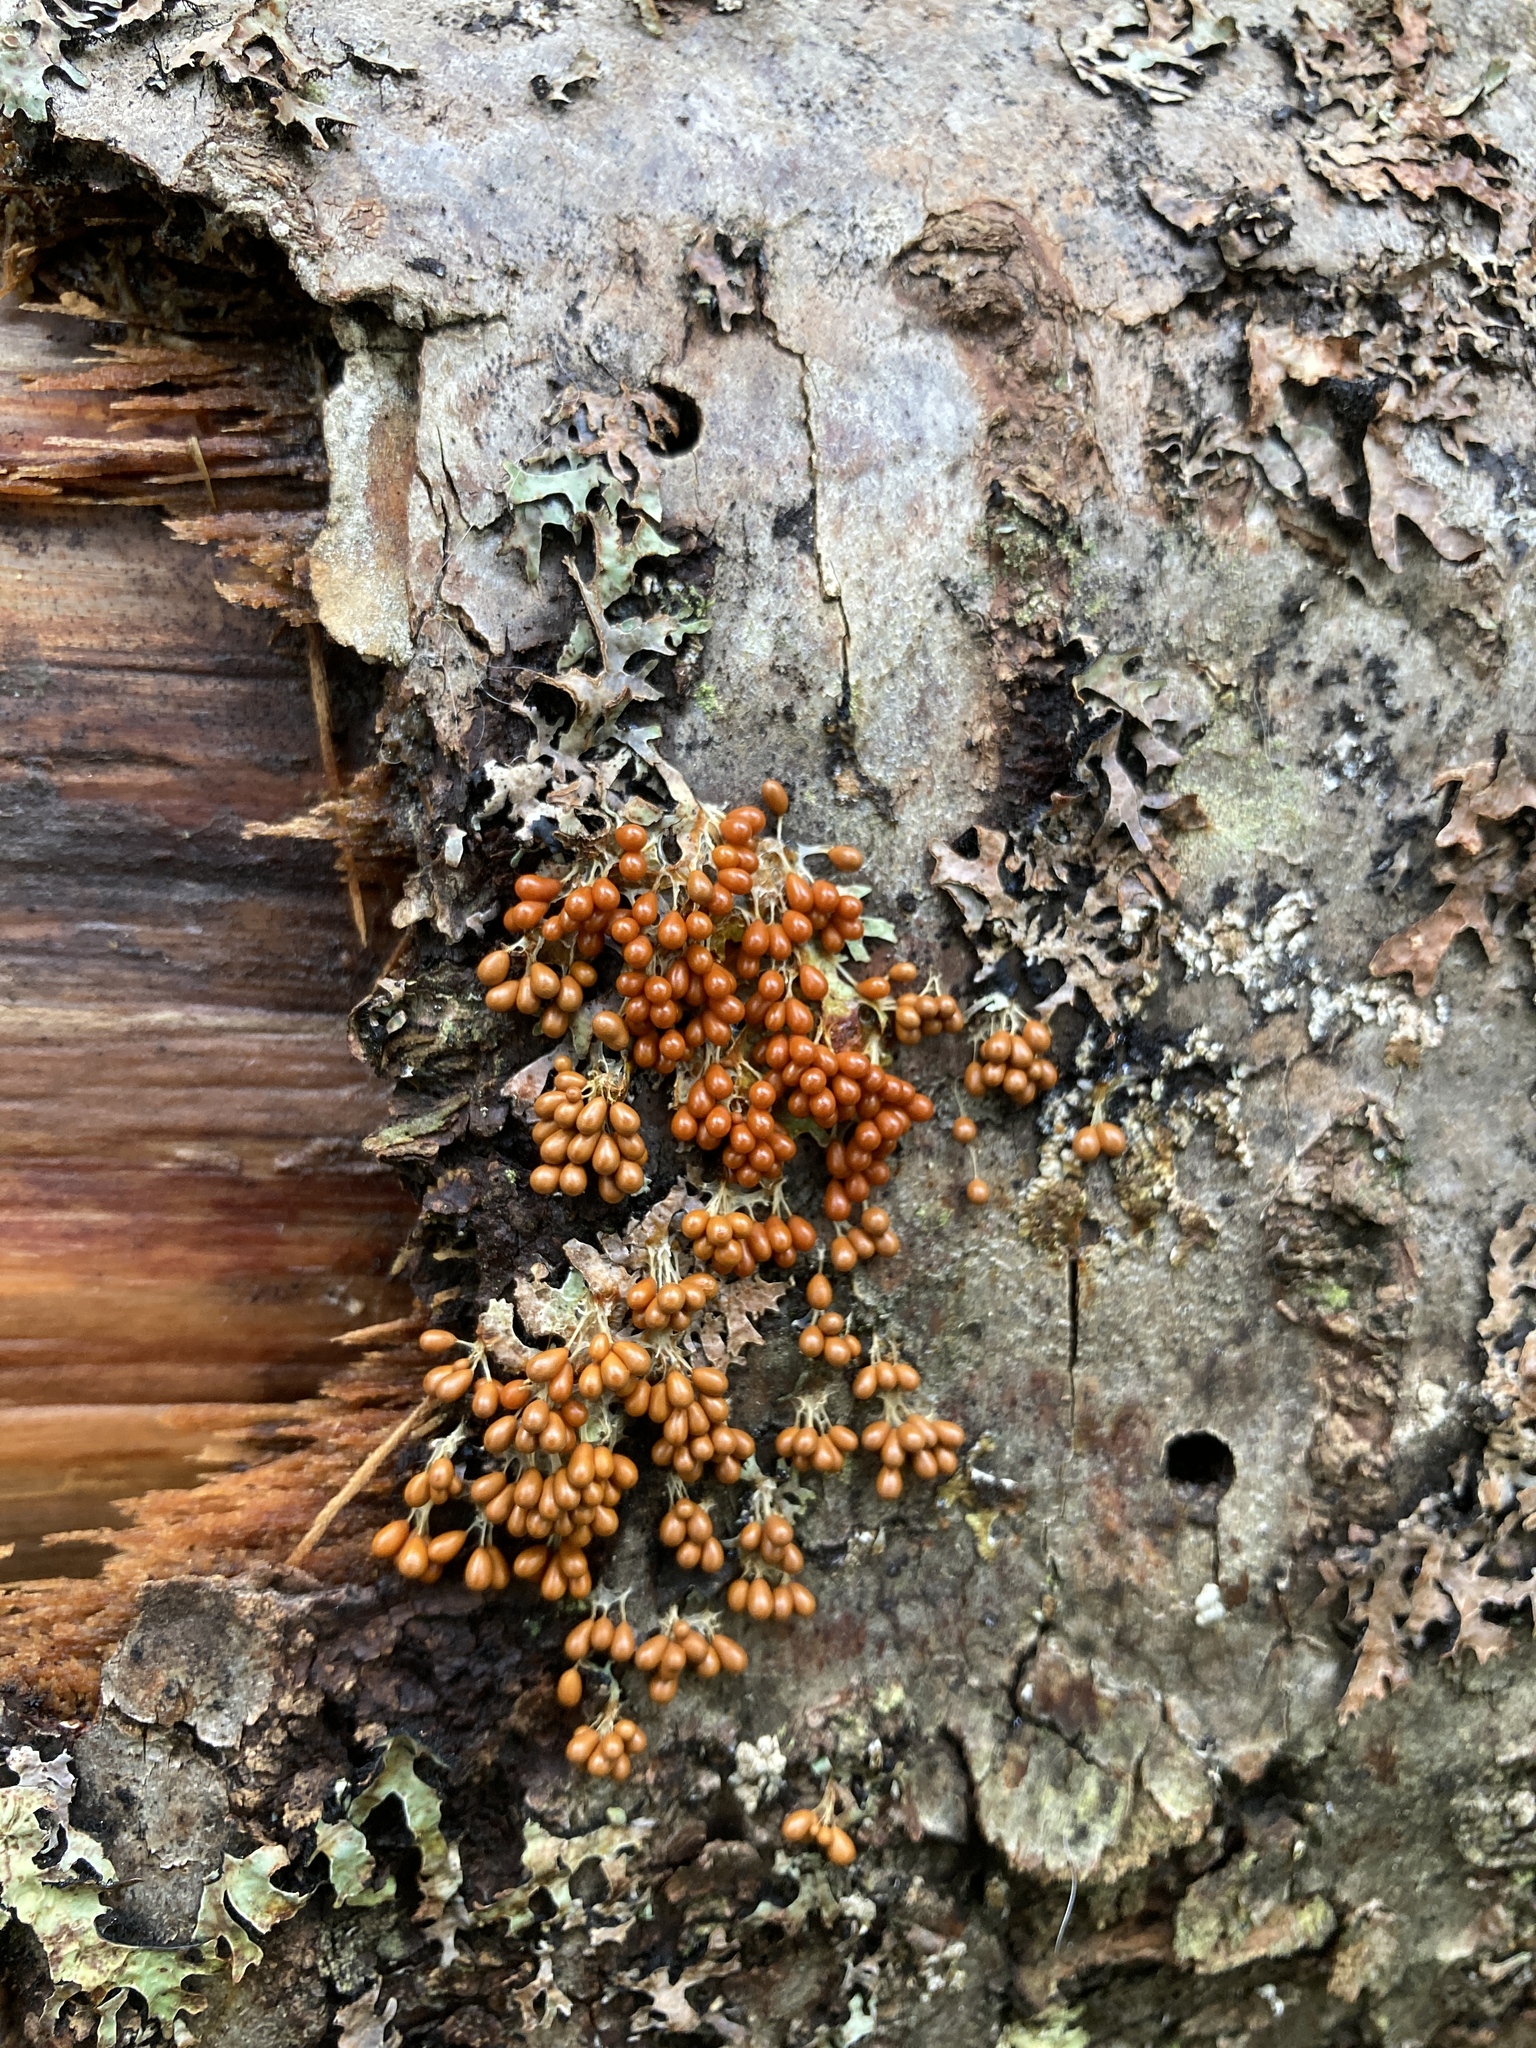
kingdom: Protozoa
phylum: Mycetozoa
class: Myxomycetes
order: Physarales
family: Physaraceae
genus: Leocarpus
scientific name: Leocarpus fragilis
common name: Insect-egg slime
